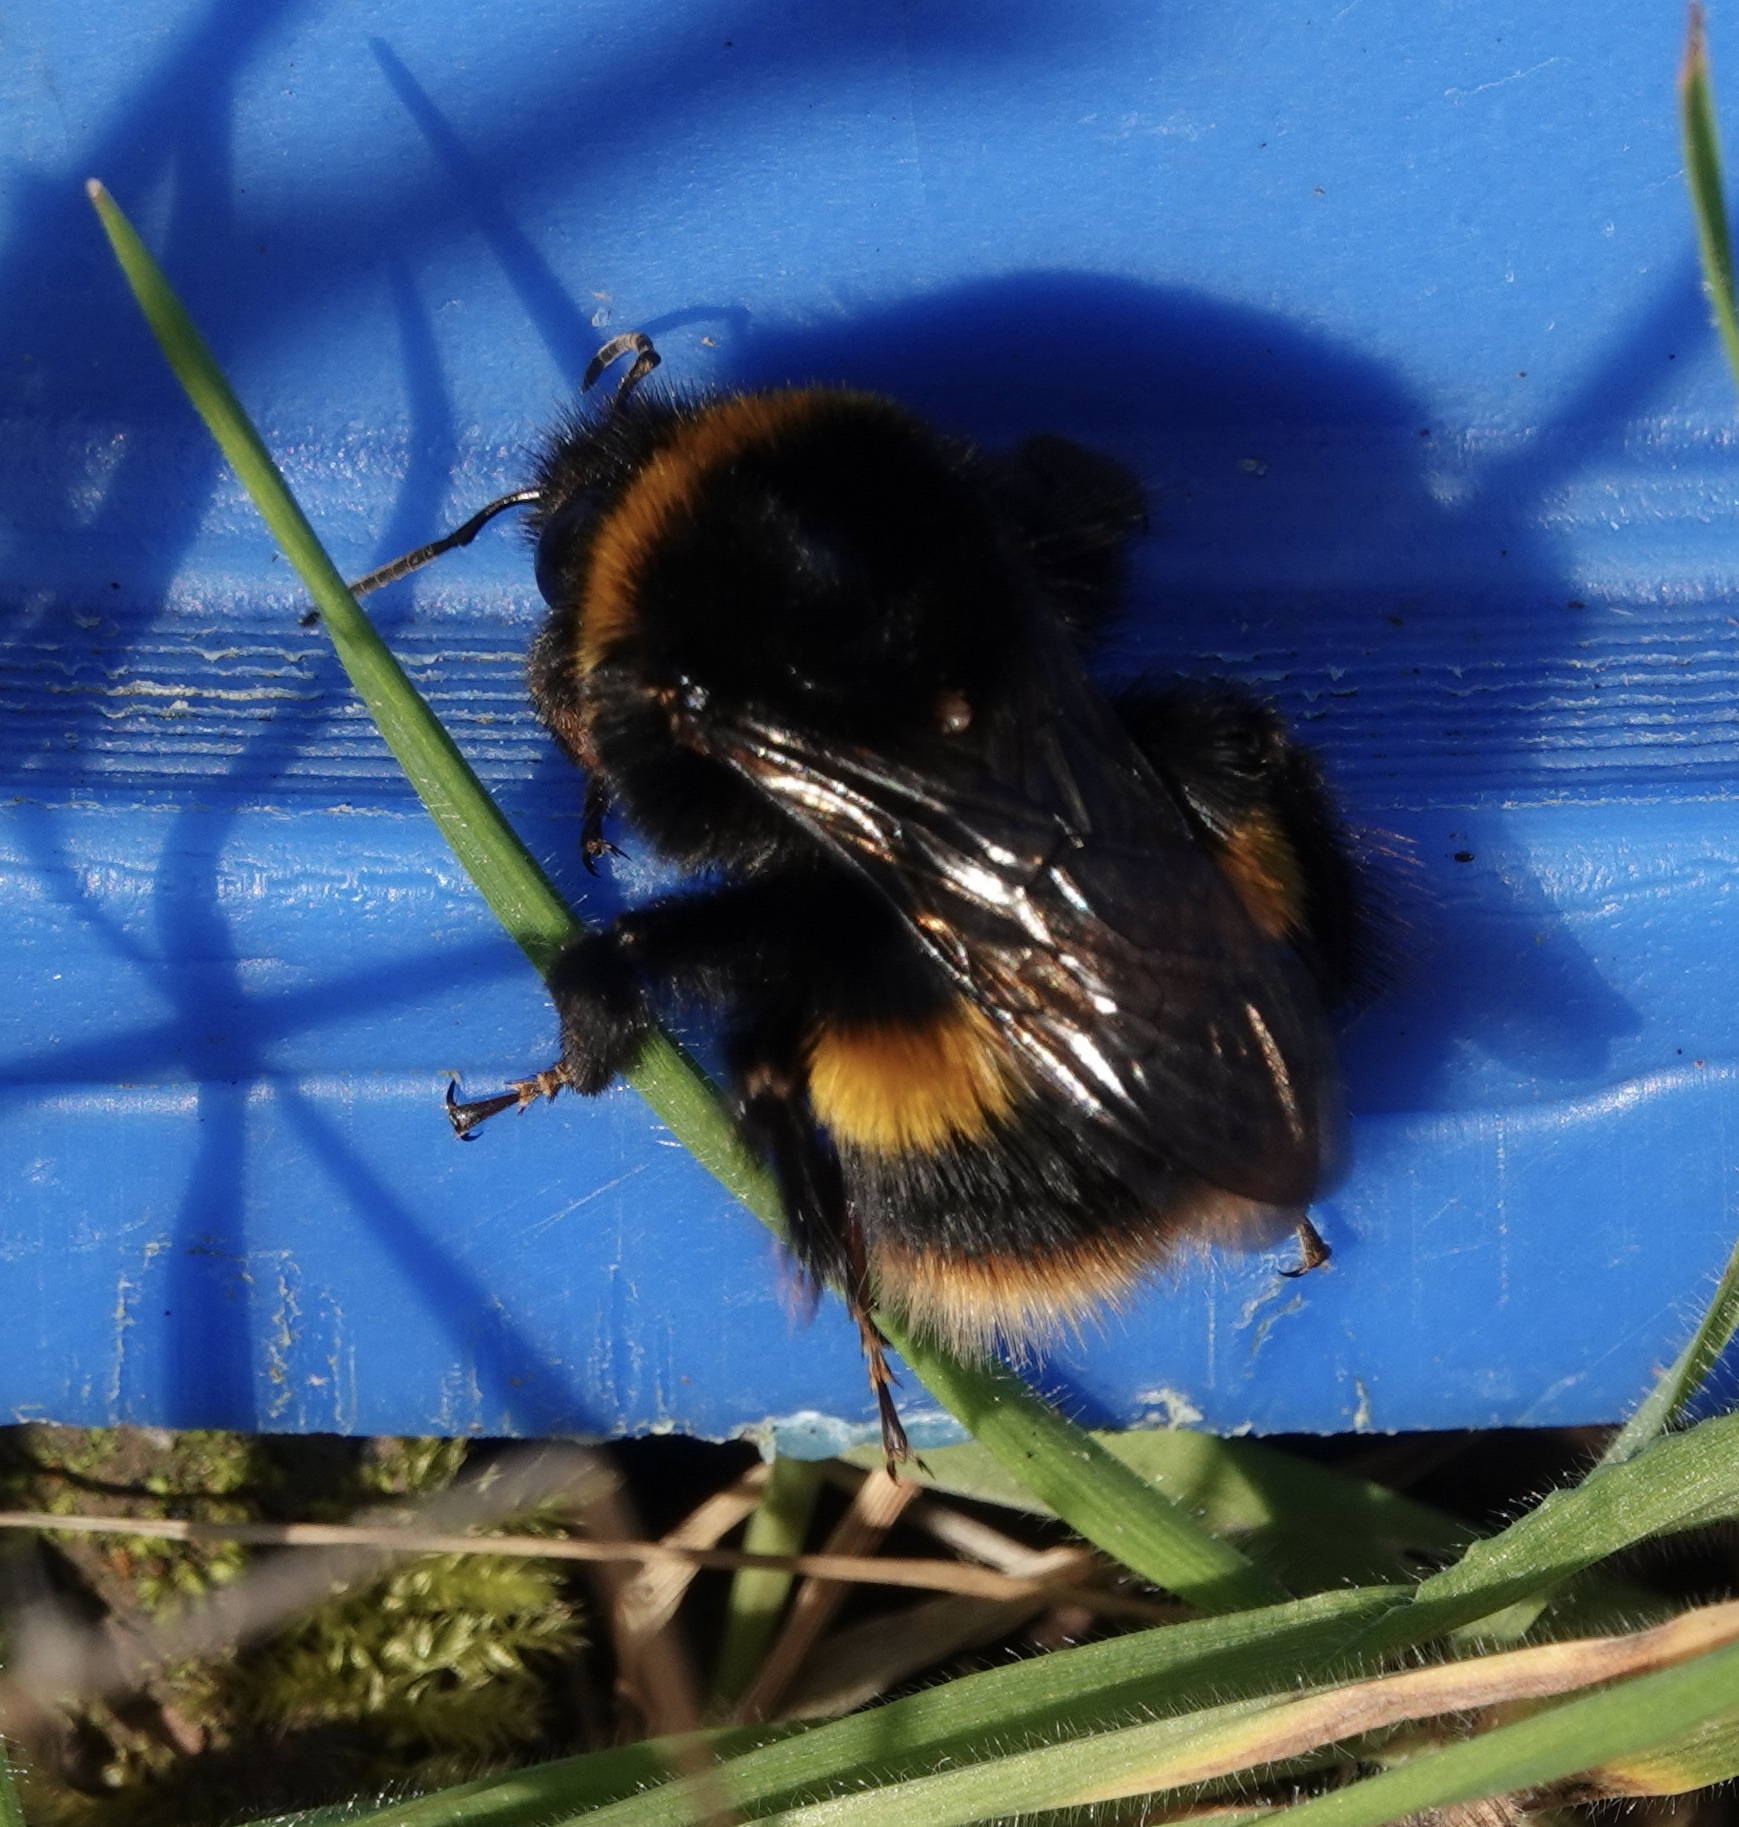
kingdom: Animalia
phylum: Arthropoda
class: Insecta
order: Hymenoptera
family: Apidae
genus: Bombus
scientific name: Bombus terrestris
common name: Buff-tailed bumblebee
